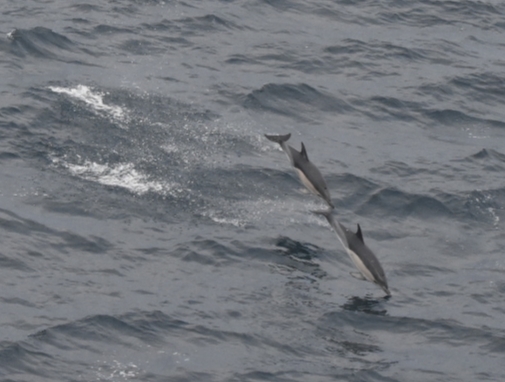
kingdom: Animalia
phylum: Chordata
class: Mammalia
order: Cetacea
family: Delphinidae
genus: Delphinus
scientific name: Delphinus delphis
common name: Common dolphin
